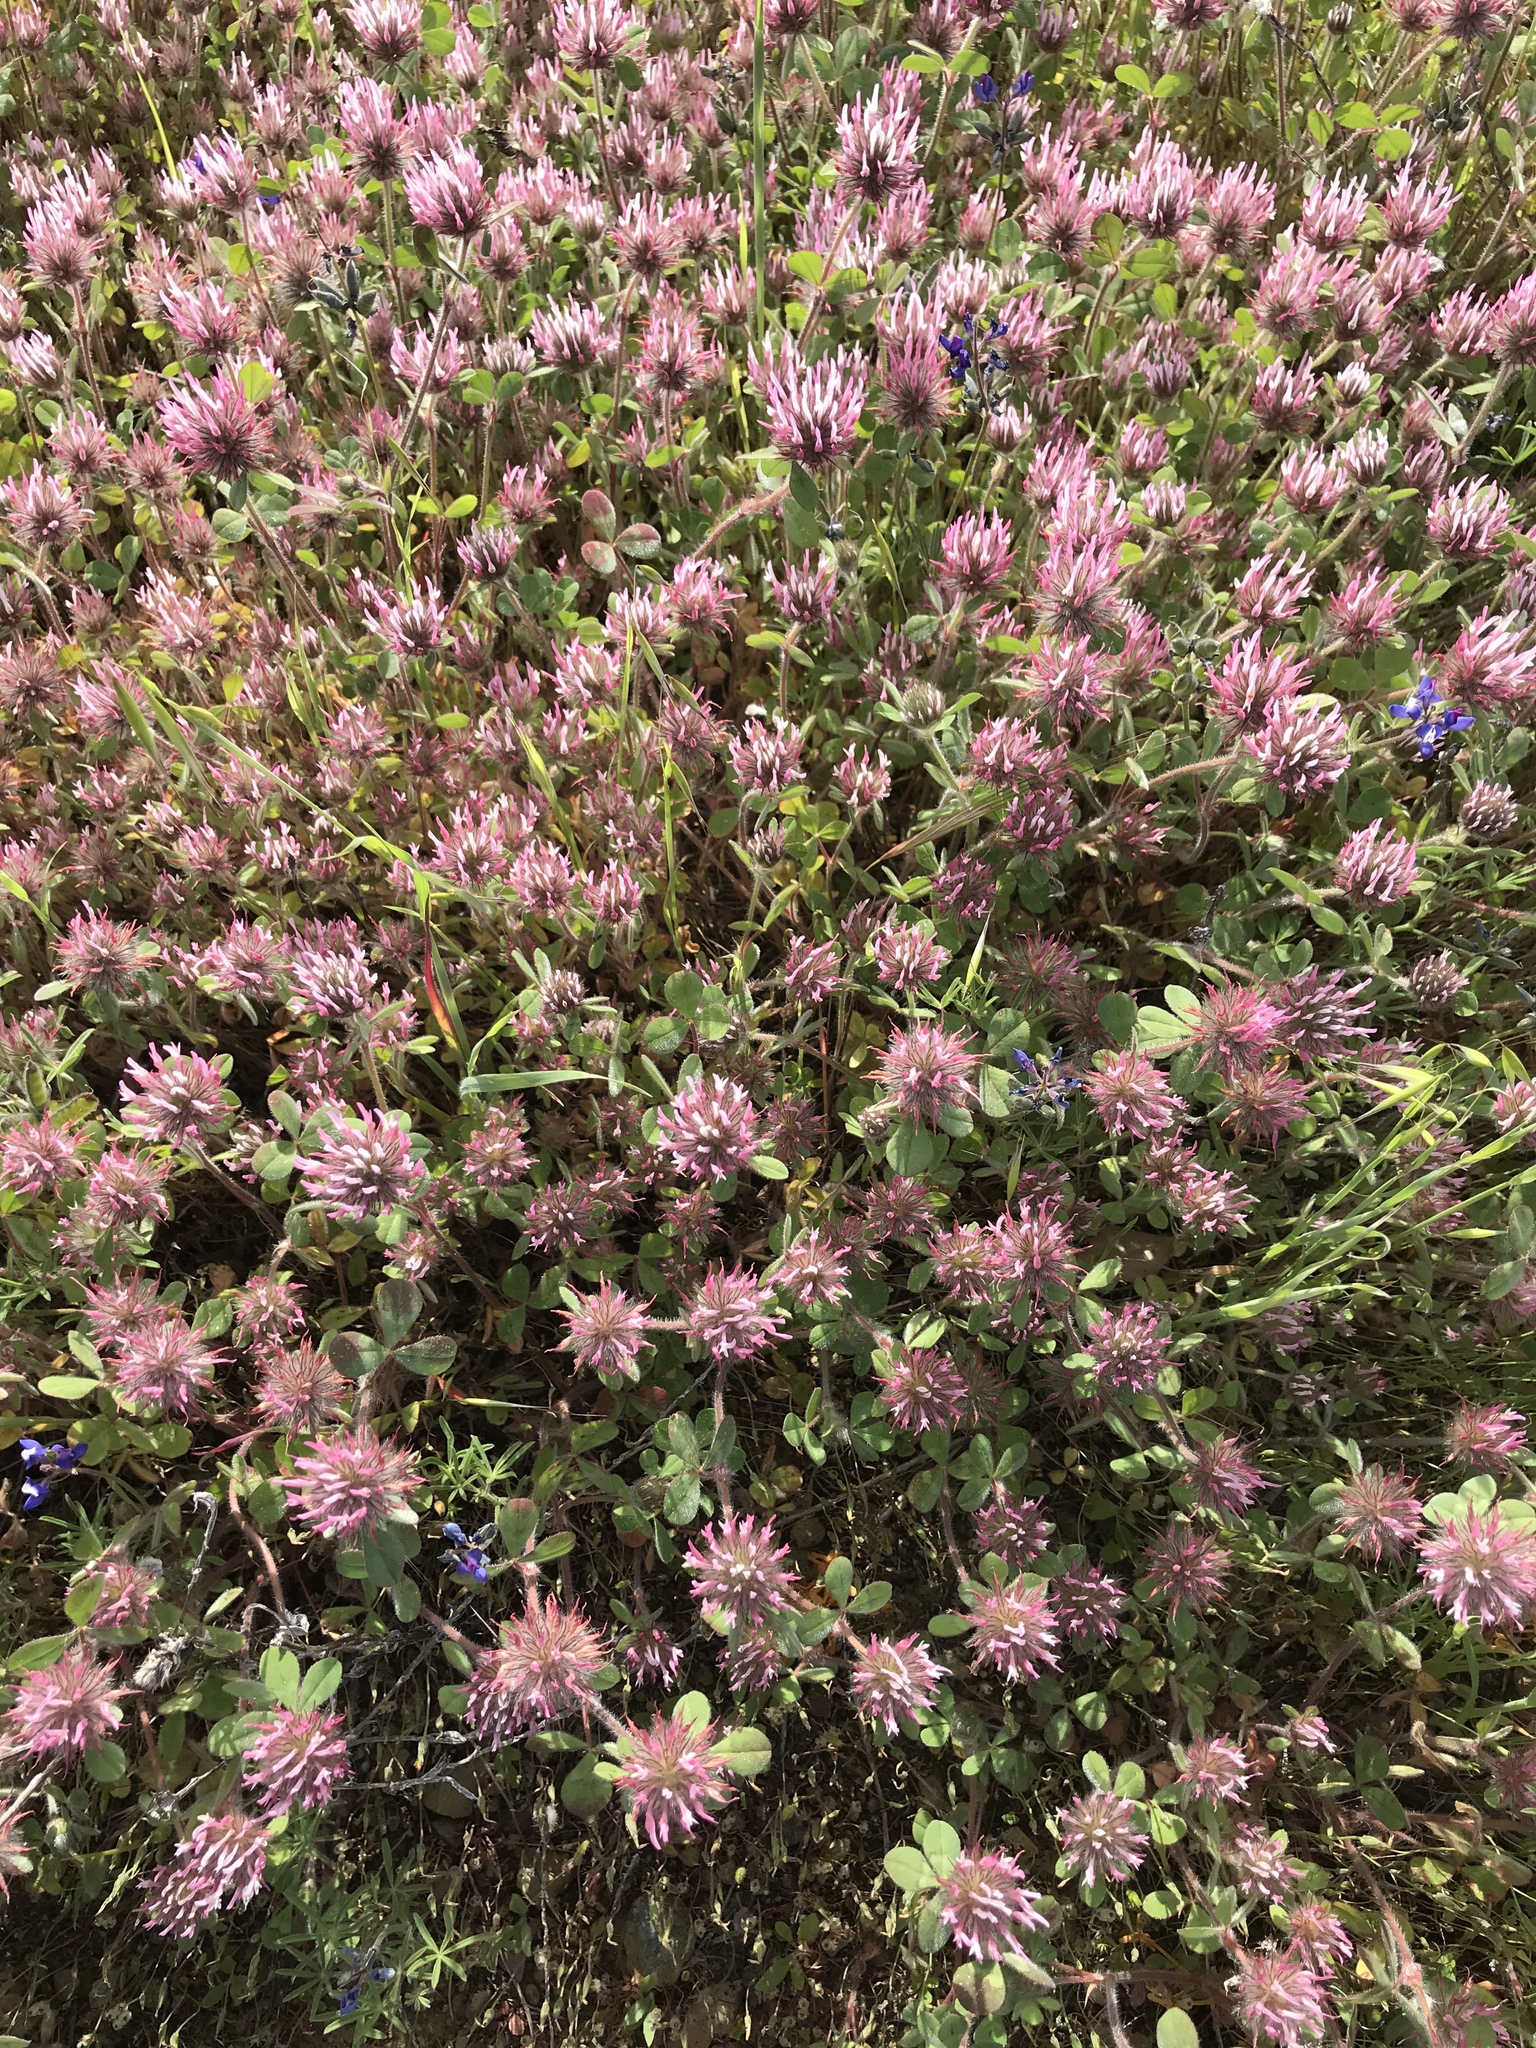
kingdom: Plantae
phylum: Tracheophyta
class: Magnoliopsida
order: Fabales
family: Fabaceae
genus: Trifolium
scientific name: Trifolium hirtum
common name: Rose clover
